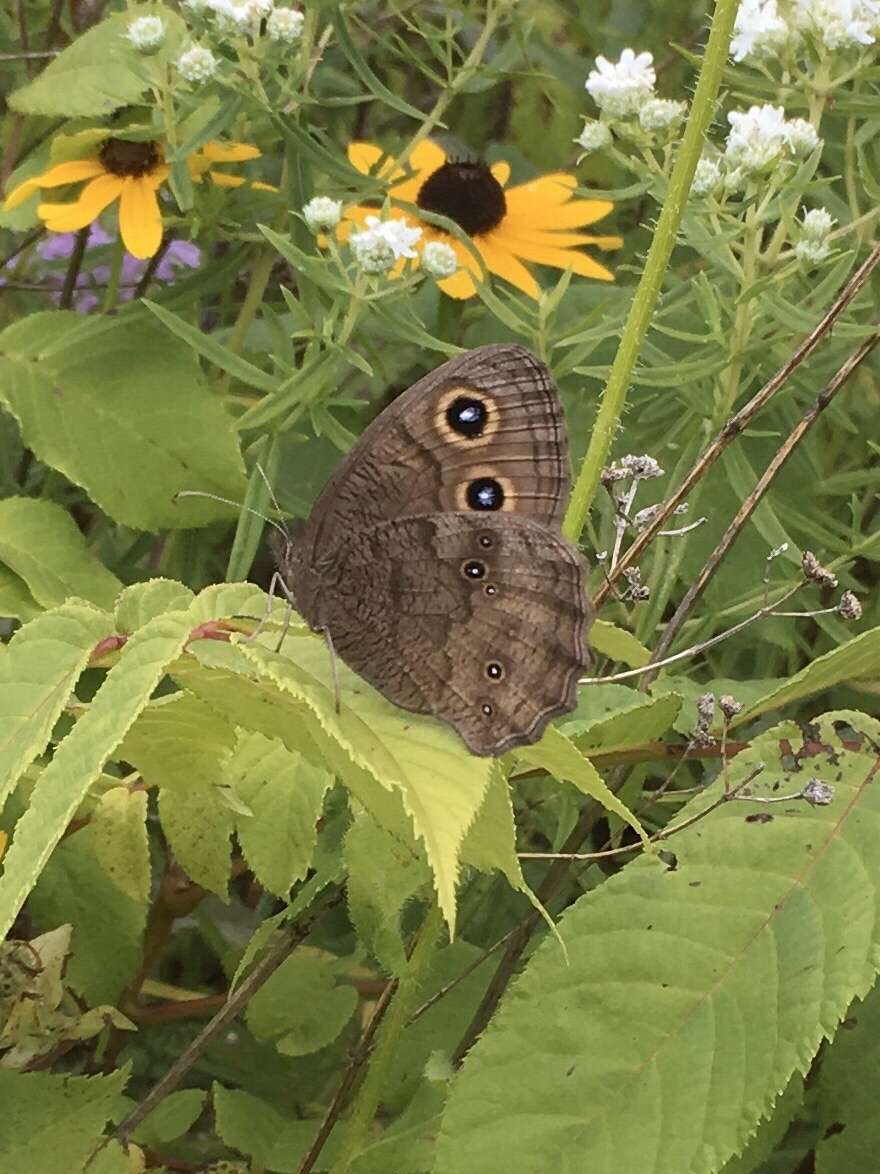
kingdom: Animalia
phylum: Arthropoda
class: Insecta
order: Lepidoptera
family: Nymphalidae
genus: Cercyonis
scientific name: Cercyonis pegala
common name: Common wood-nymph
